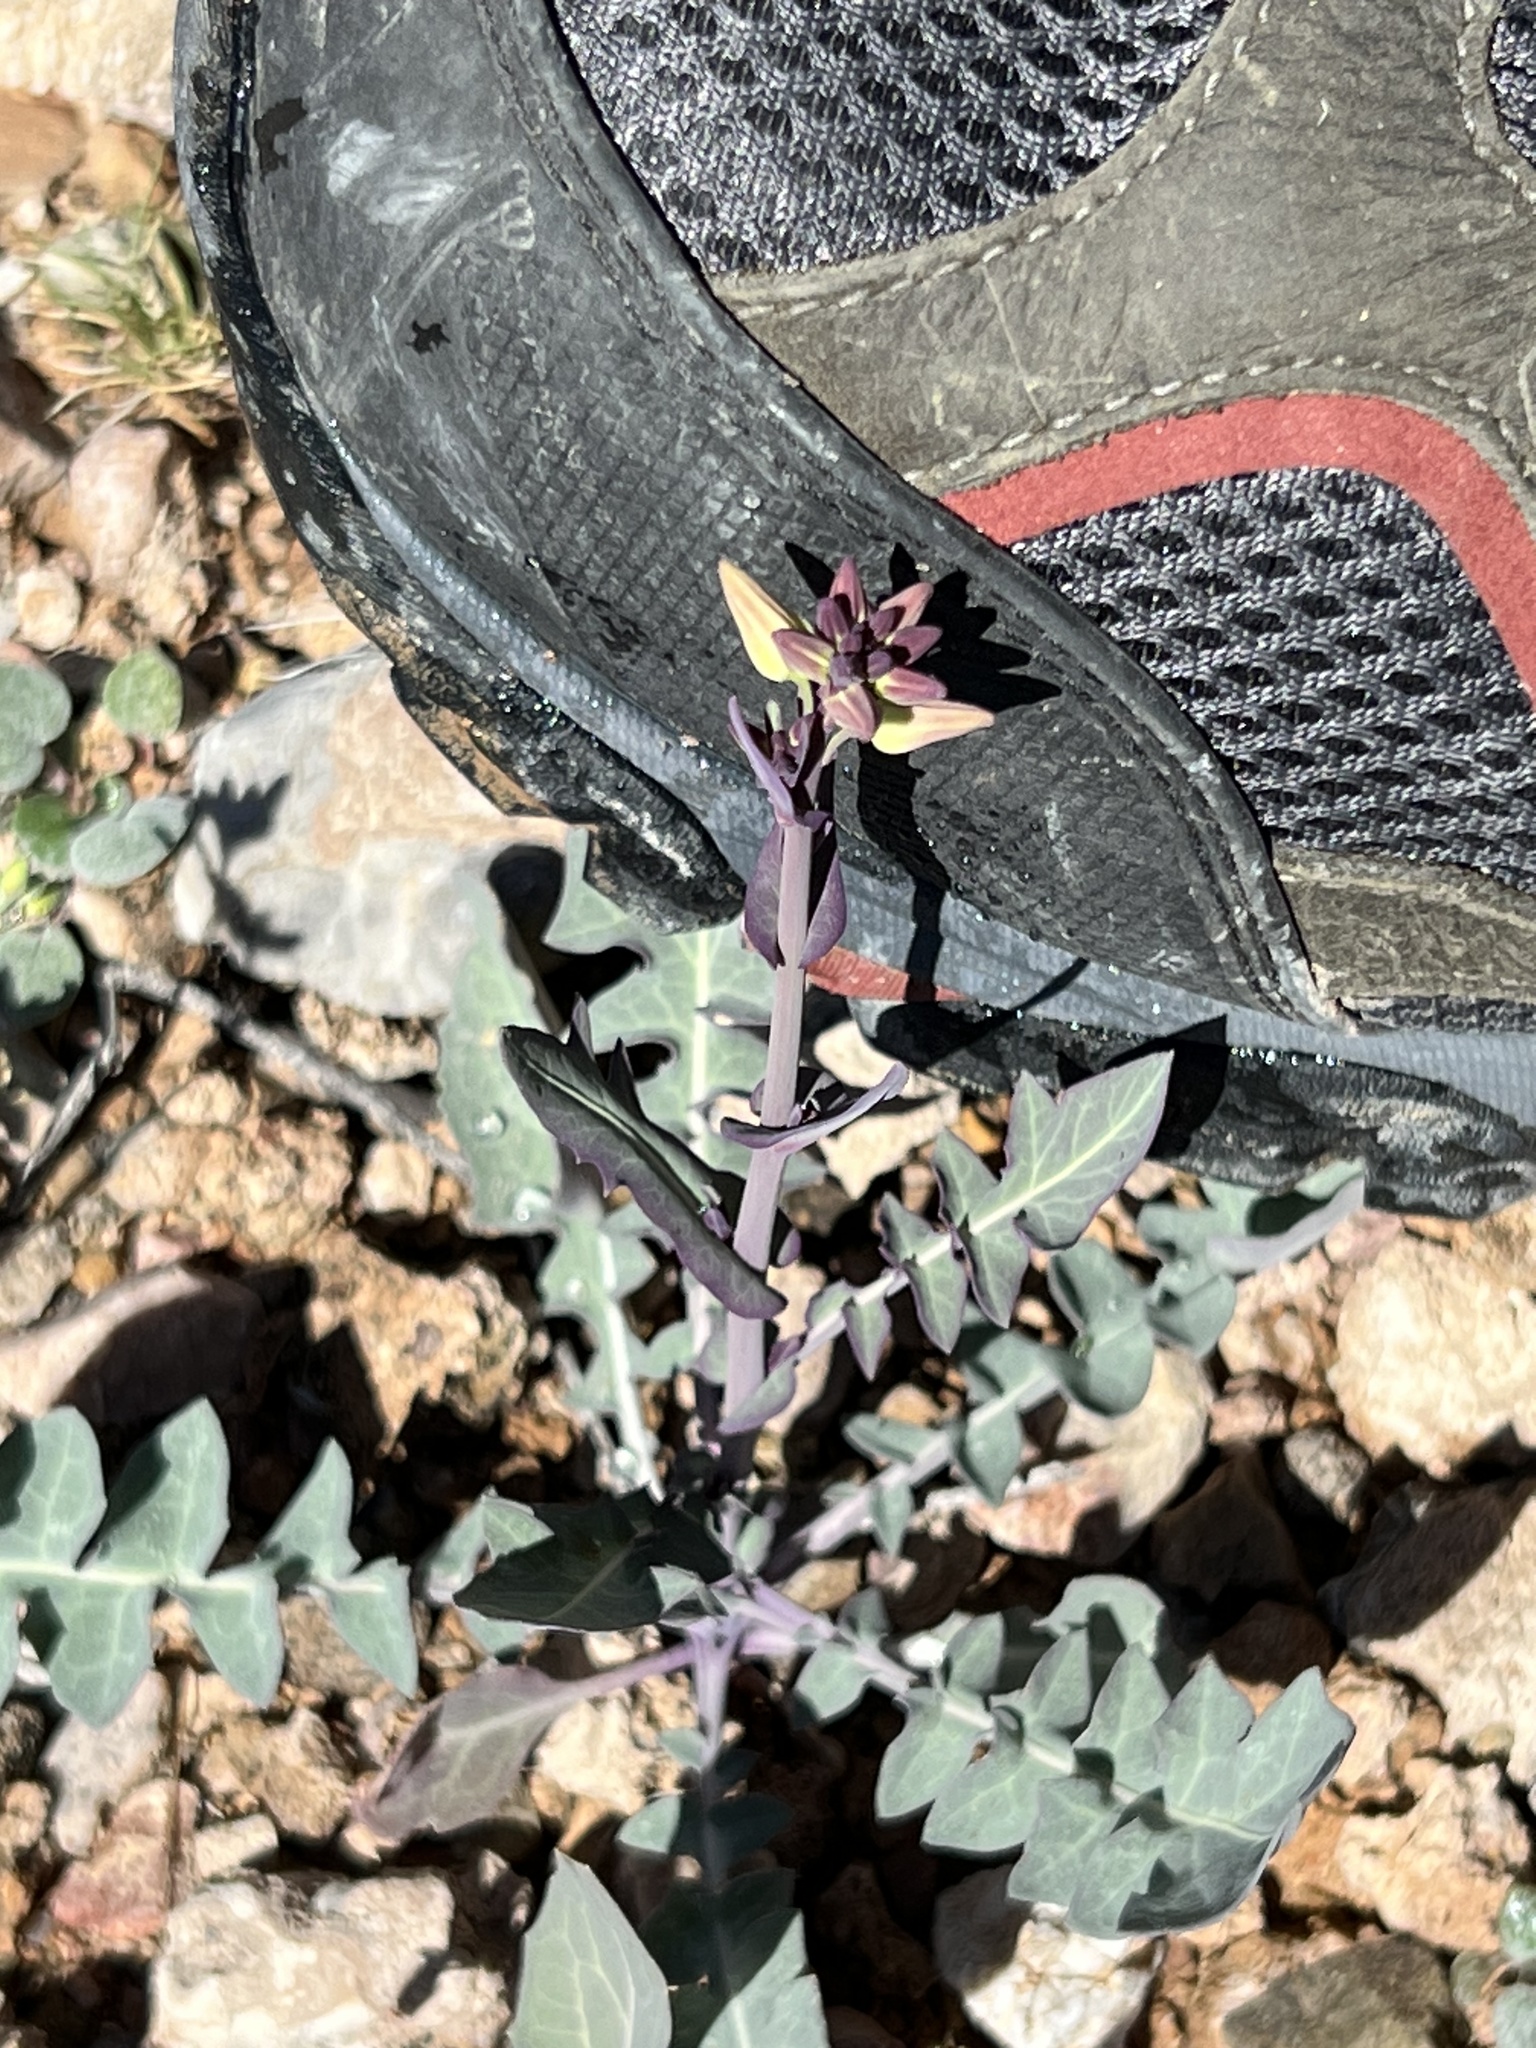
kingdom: Plantae
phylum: Tracheophyta
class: Magnoliopsida
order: Brassicales
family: Brassicaceae
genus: Streptanthus
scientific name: Streptanthus carinatus
